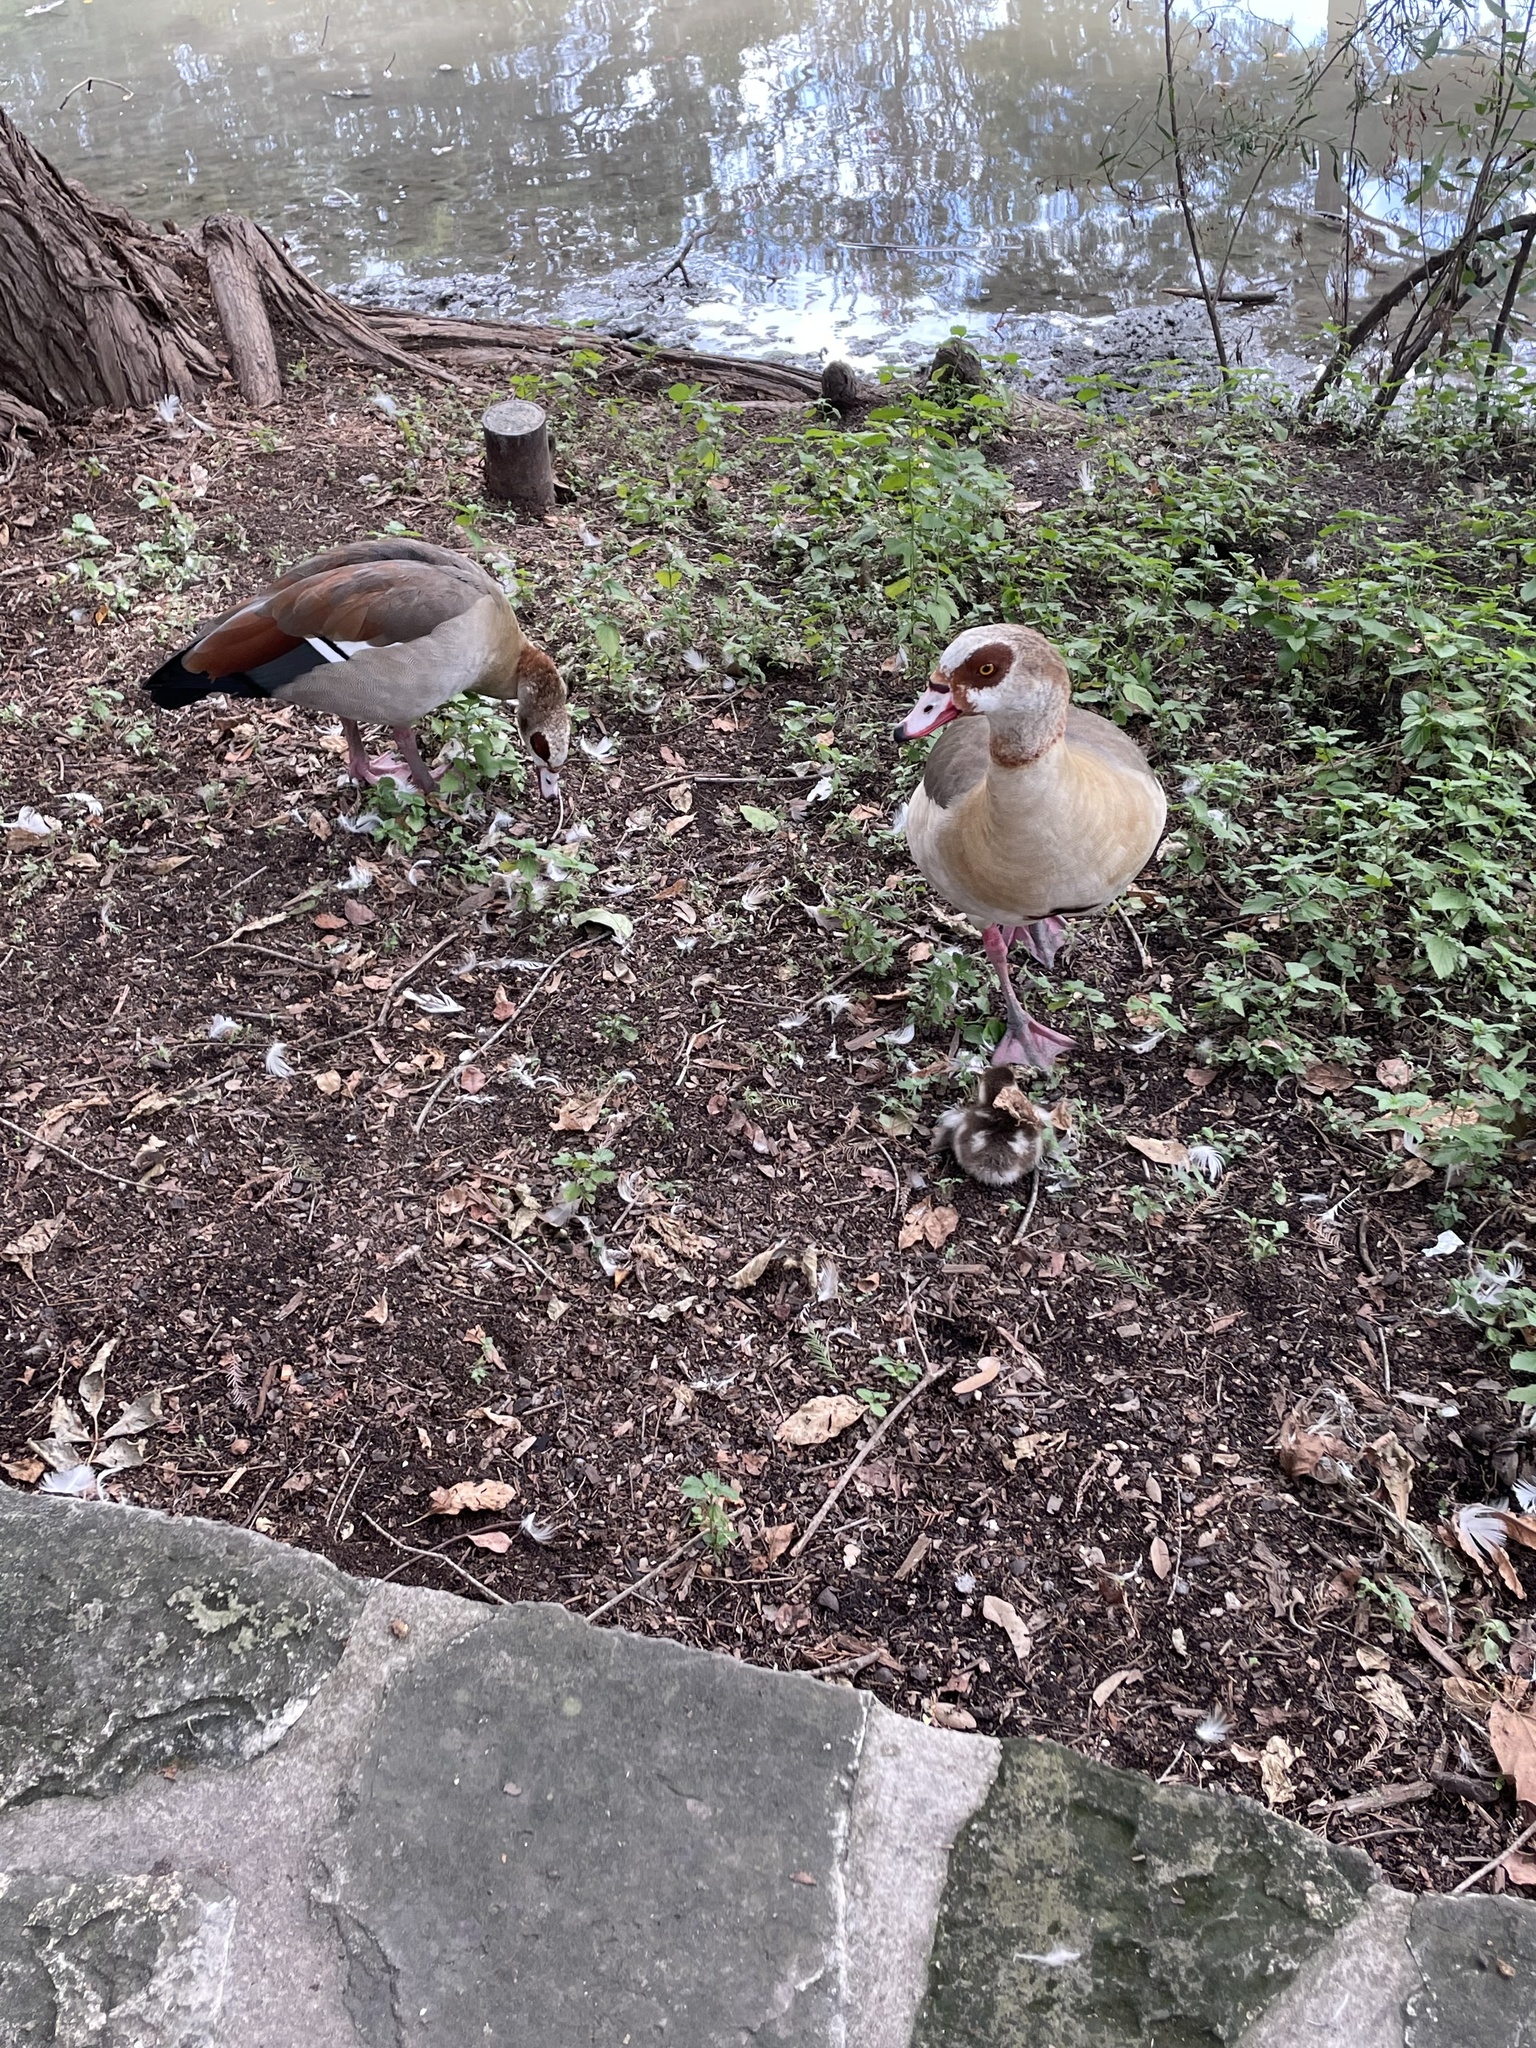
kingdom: Animalia
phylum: Chordata
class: Aves
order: Anseriformes
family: Anatidae
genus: Alopochen
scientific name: Alopochen aegyptiaca
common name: Egyptian goose
